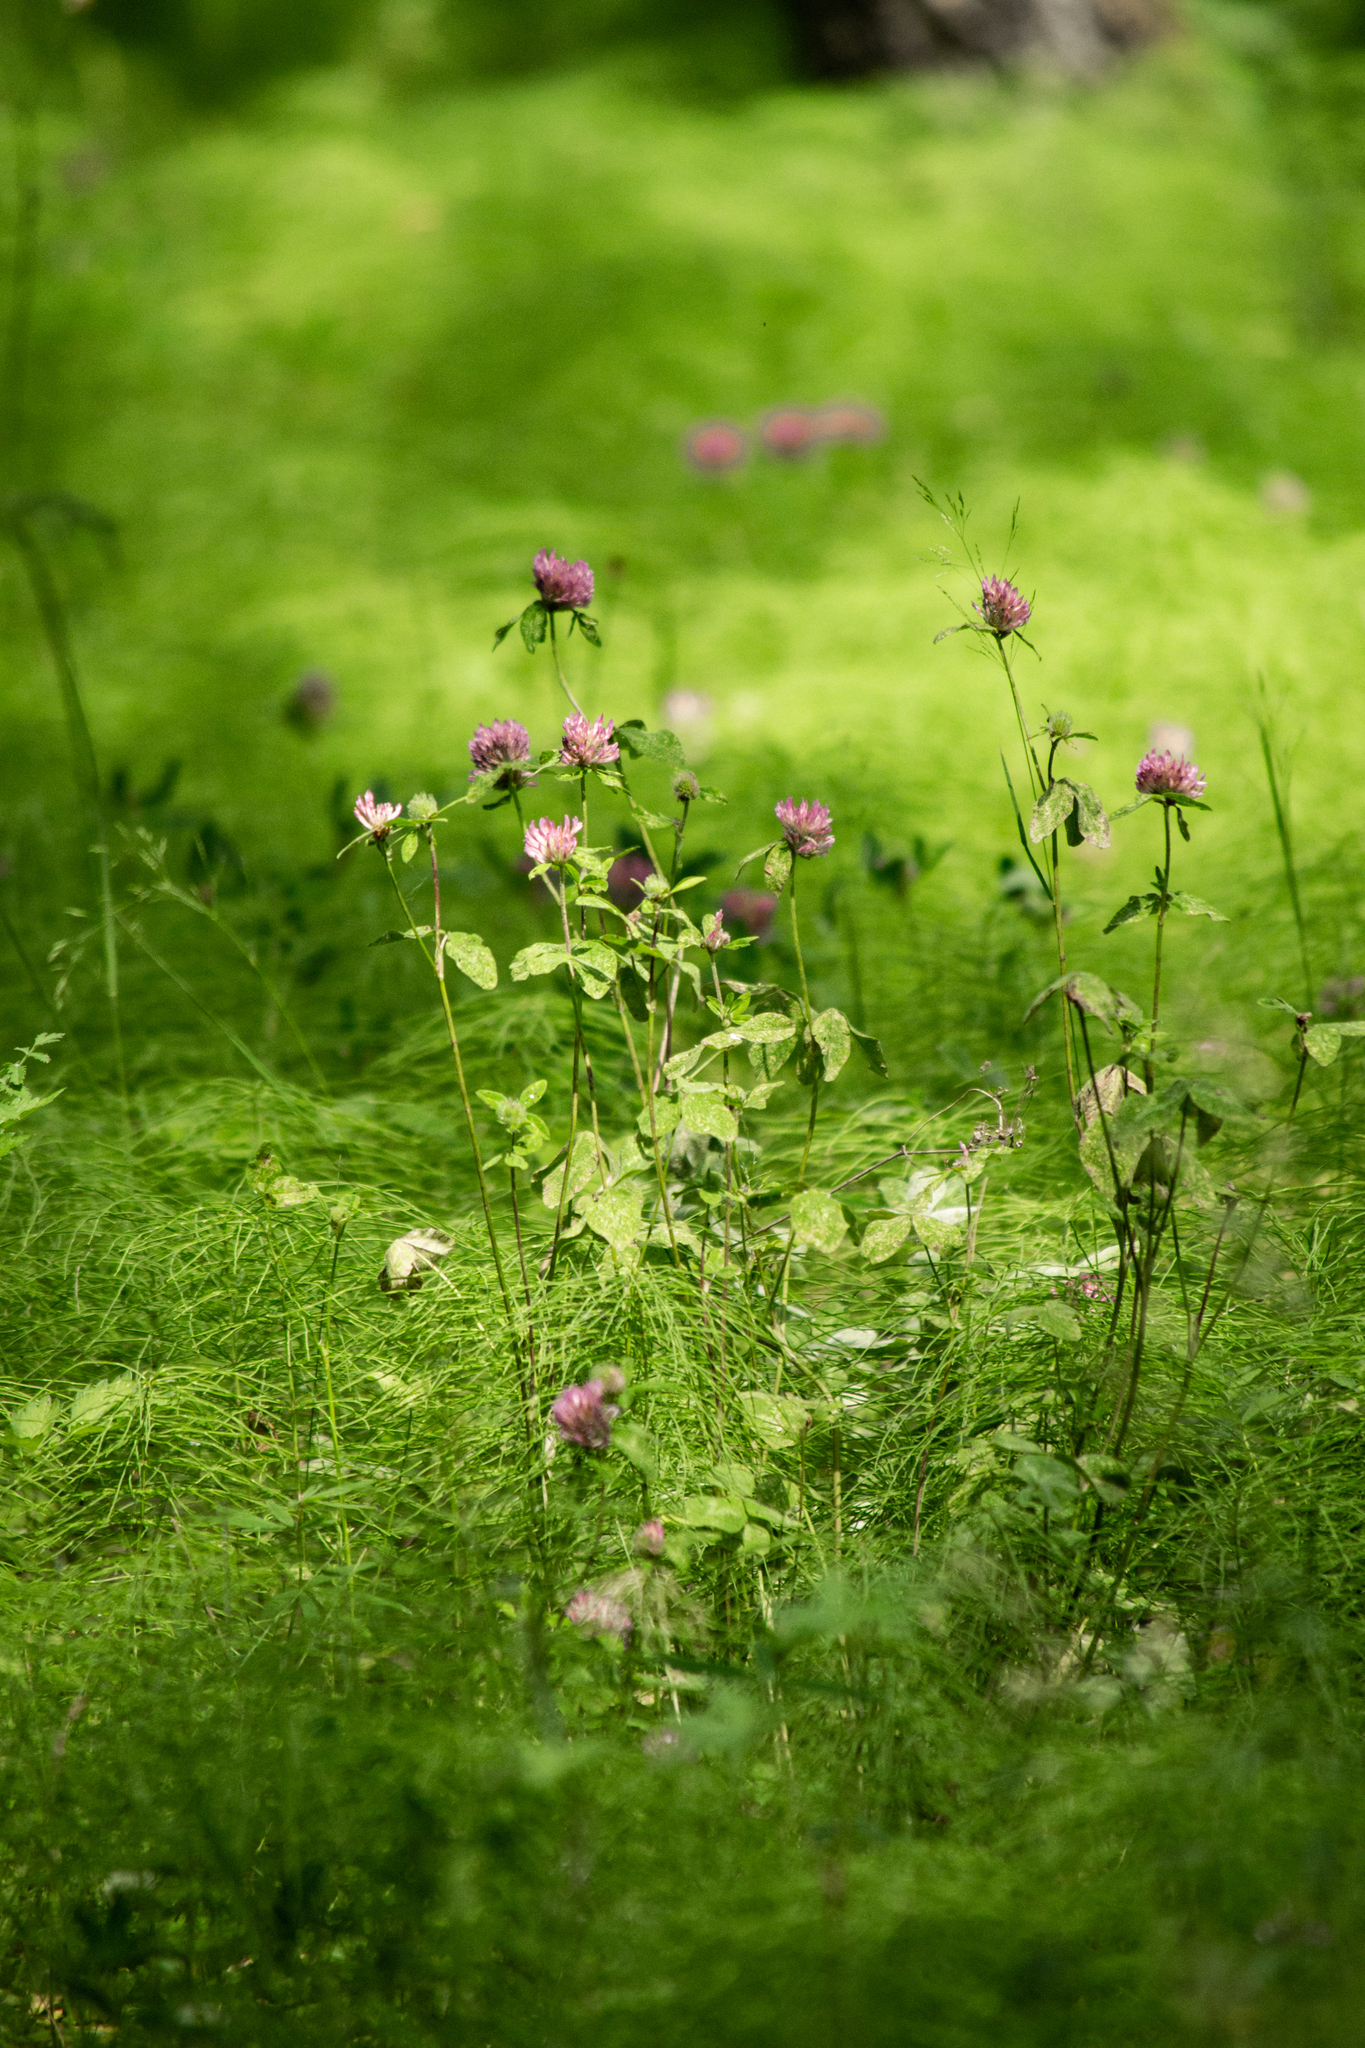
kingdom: Plantae
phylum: Tracheophyta
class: Magnoliopsida
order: Fabales
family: Fabaceae
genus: Trifolium
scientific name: Trifolium pratense
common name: Red clover
